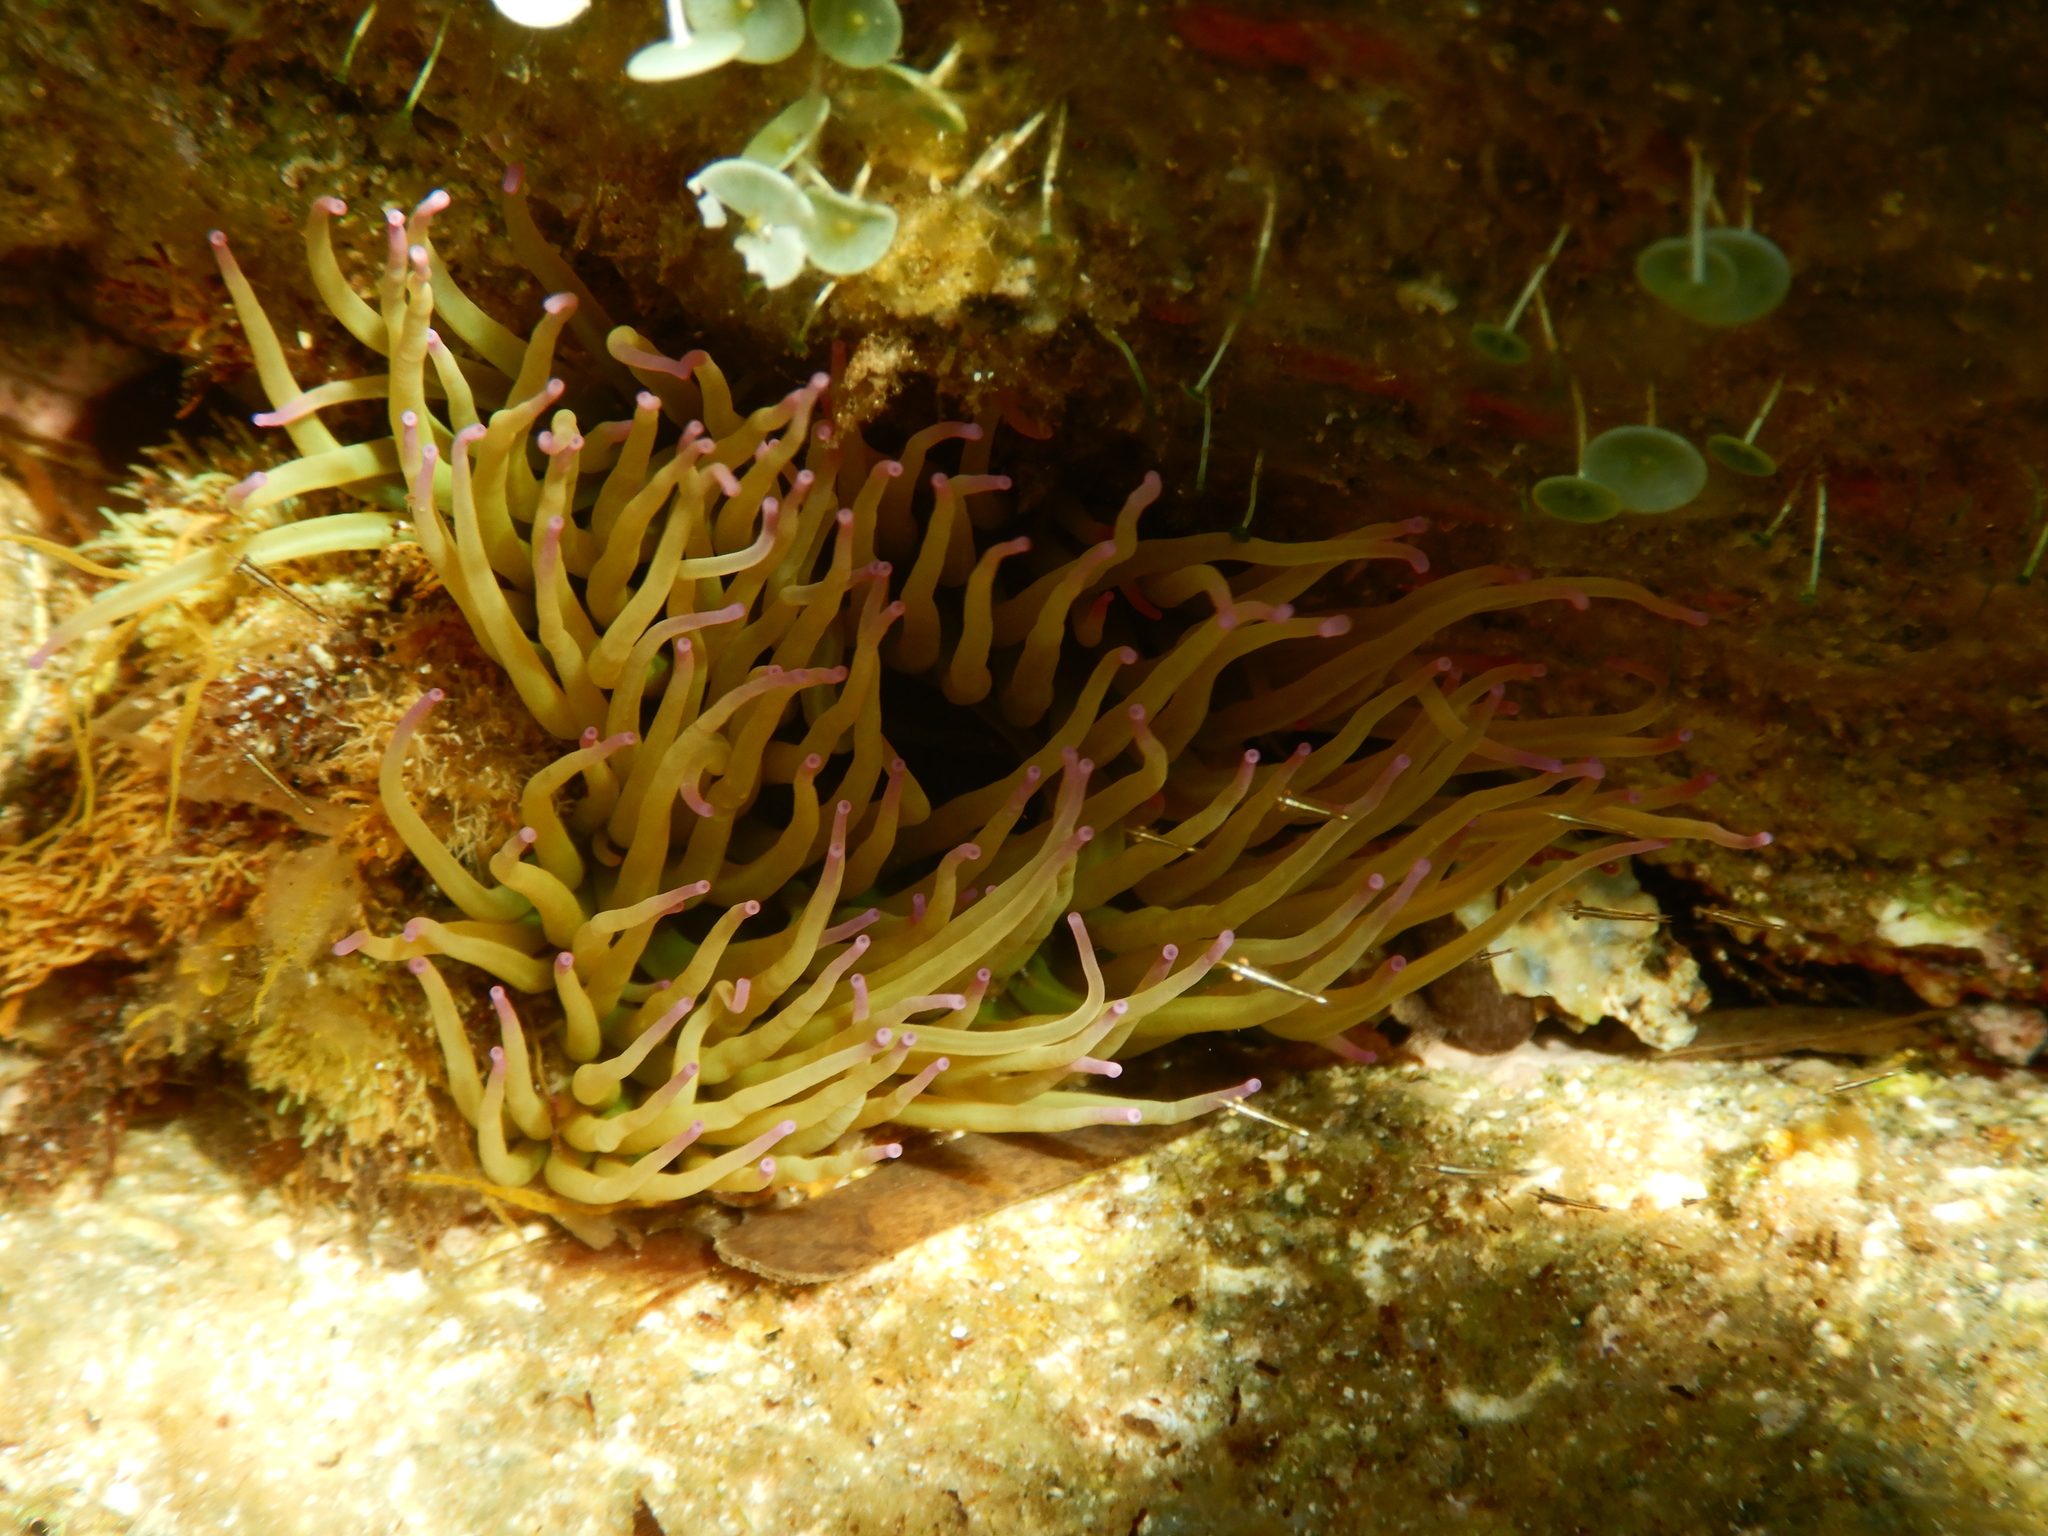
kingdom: Animalia
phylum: Cnidaria
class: Anthozoa
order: Actiniaria
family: Actiniidae
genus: Anemonia
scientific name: Anemonia viridis
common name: Snakelocks anemone
